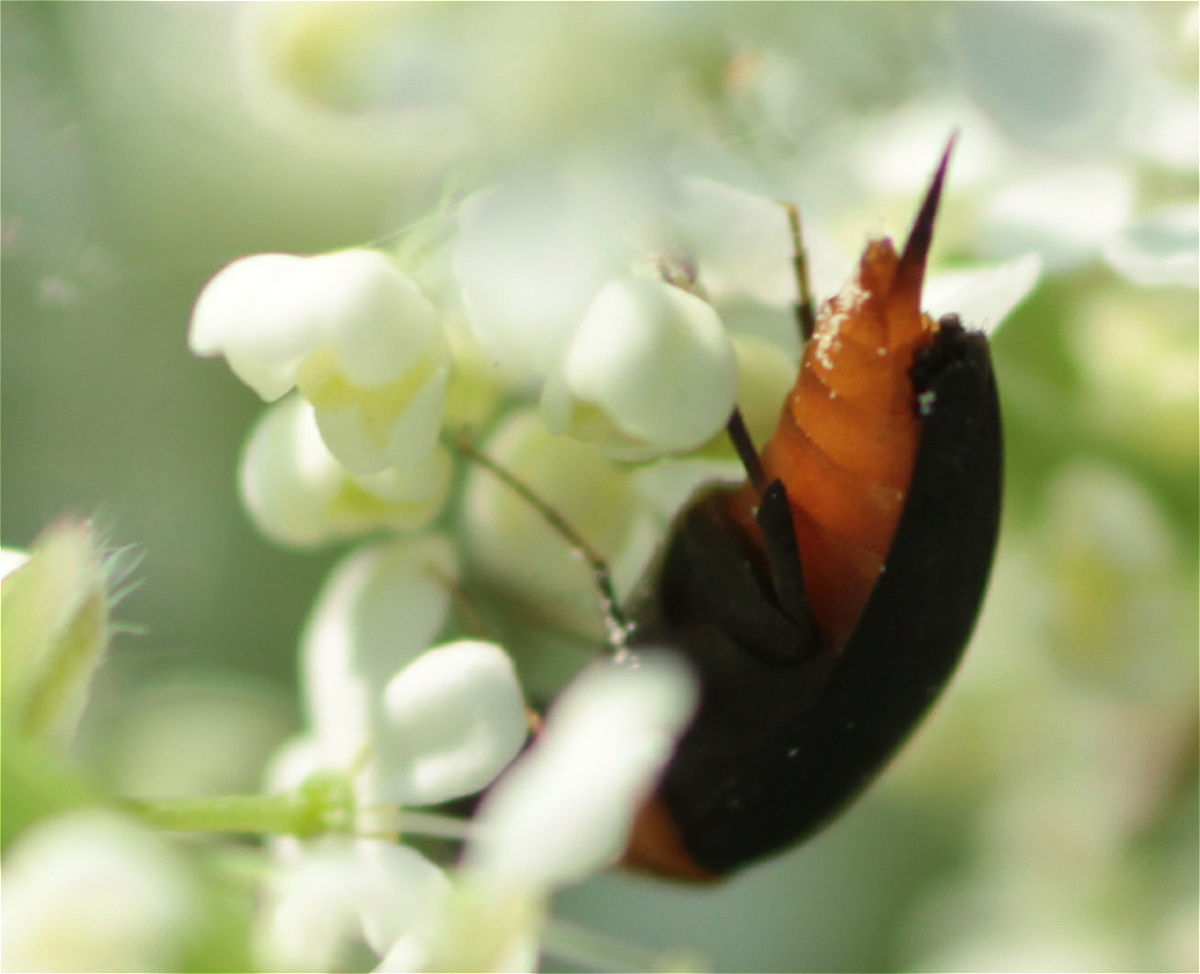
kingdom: Animalia
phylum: Arthropoda
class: Insecta
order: Coleoptera
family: Mordellidae
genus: Mordellochroa
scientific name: Mordellochroa abdominalis
